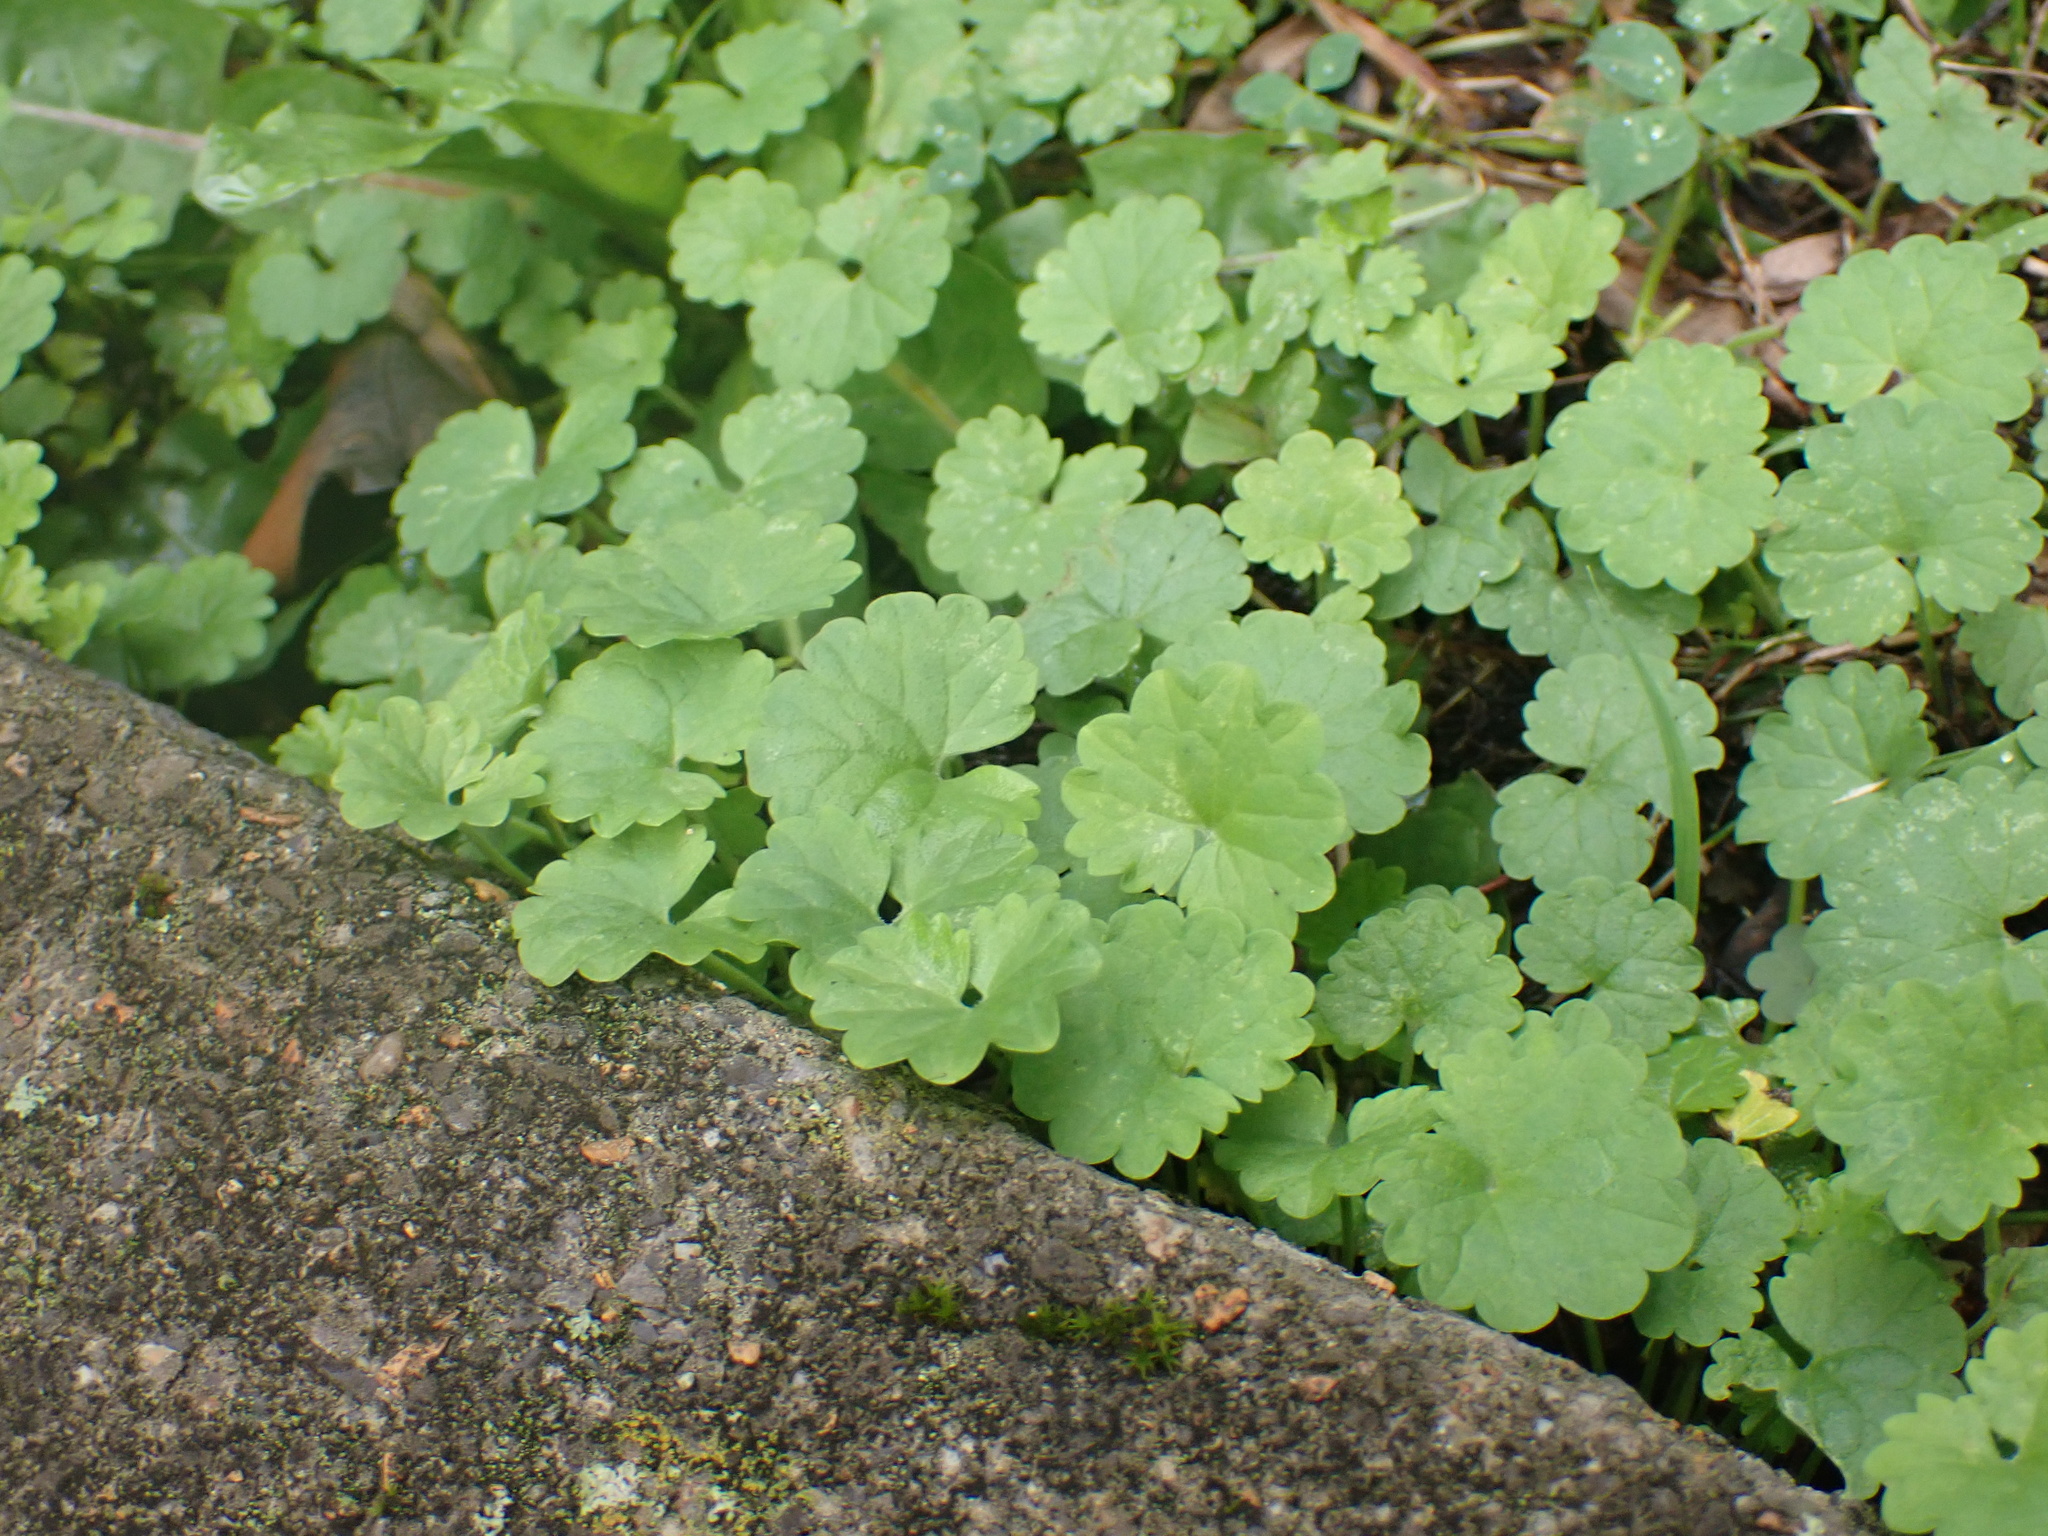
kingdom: Plantae
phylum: Tracheophyta
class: Magnoliopsida
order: Lamiales
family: Lamiaceae
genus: Glechoma
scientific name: Glechoma hederacea
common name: Ground ivy
